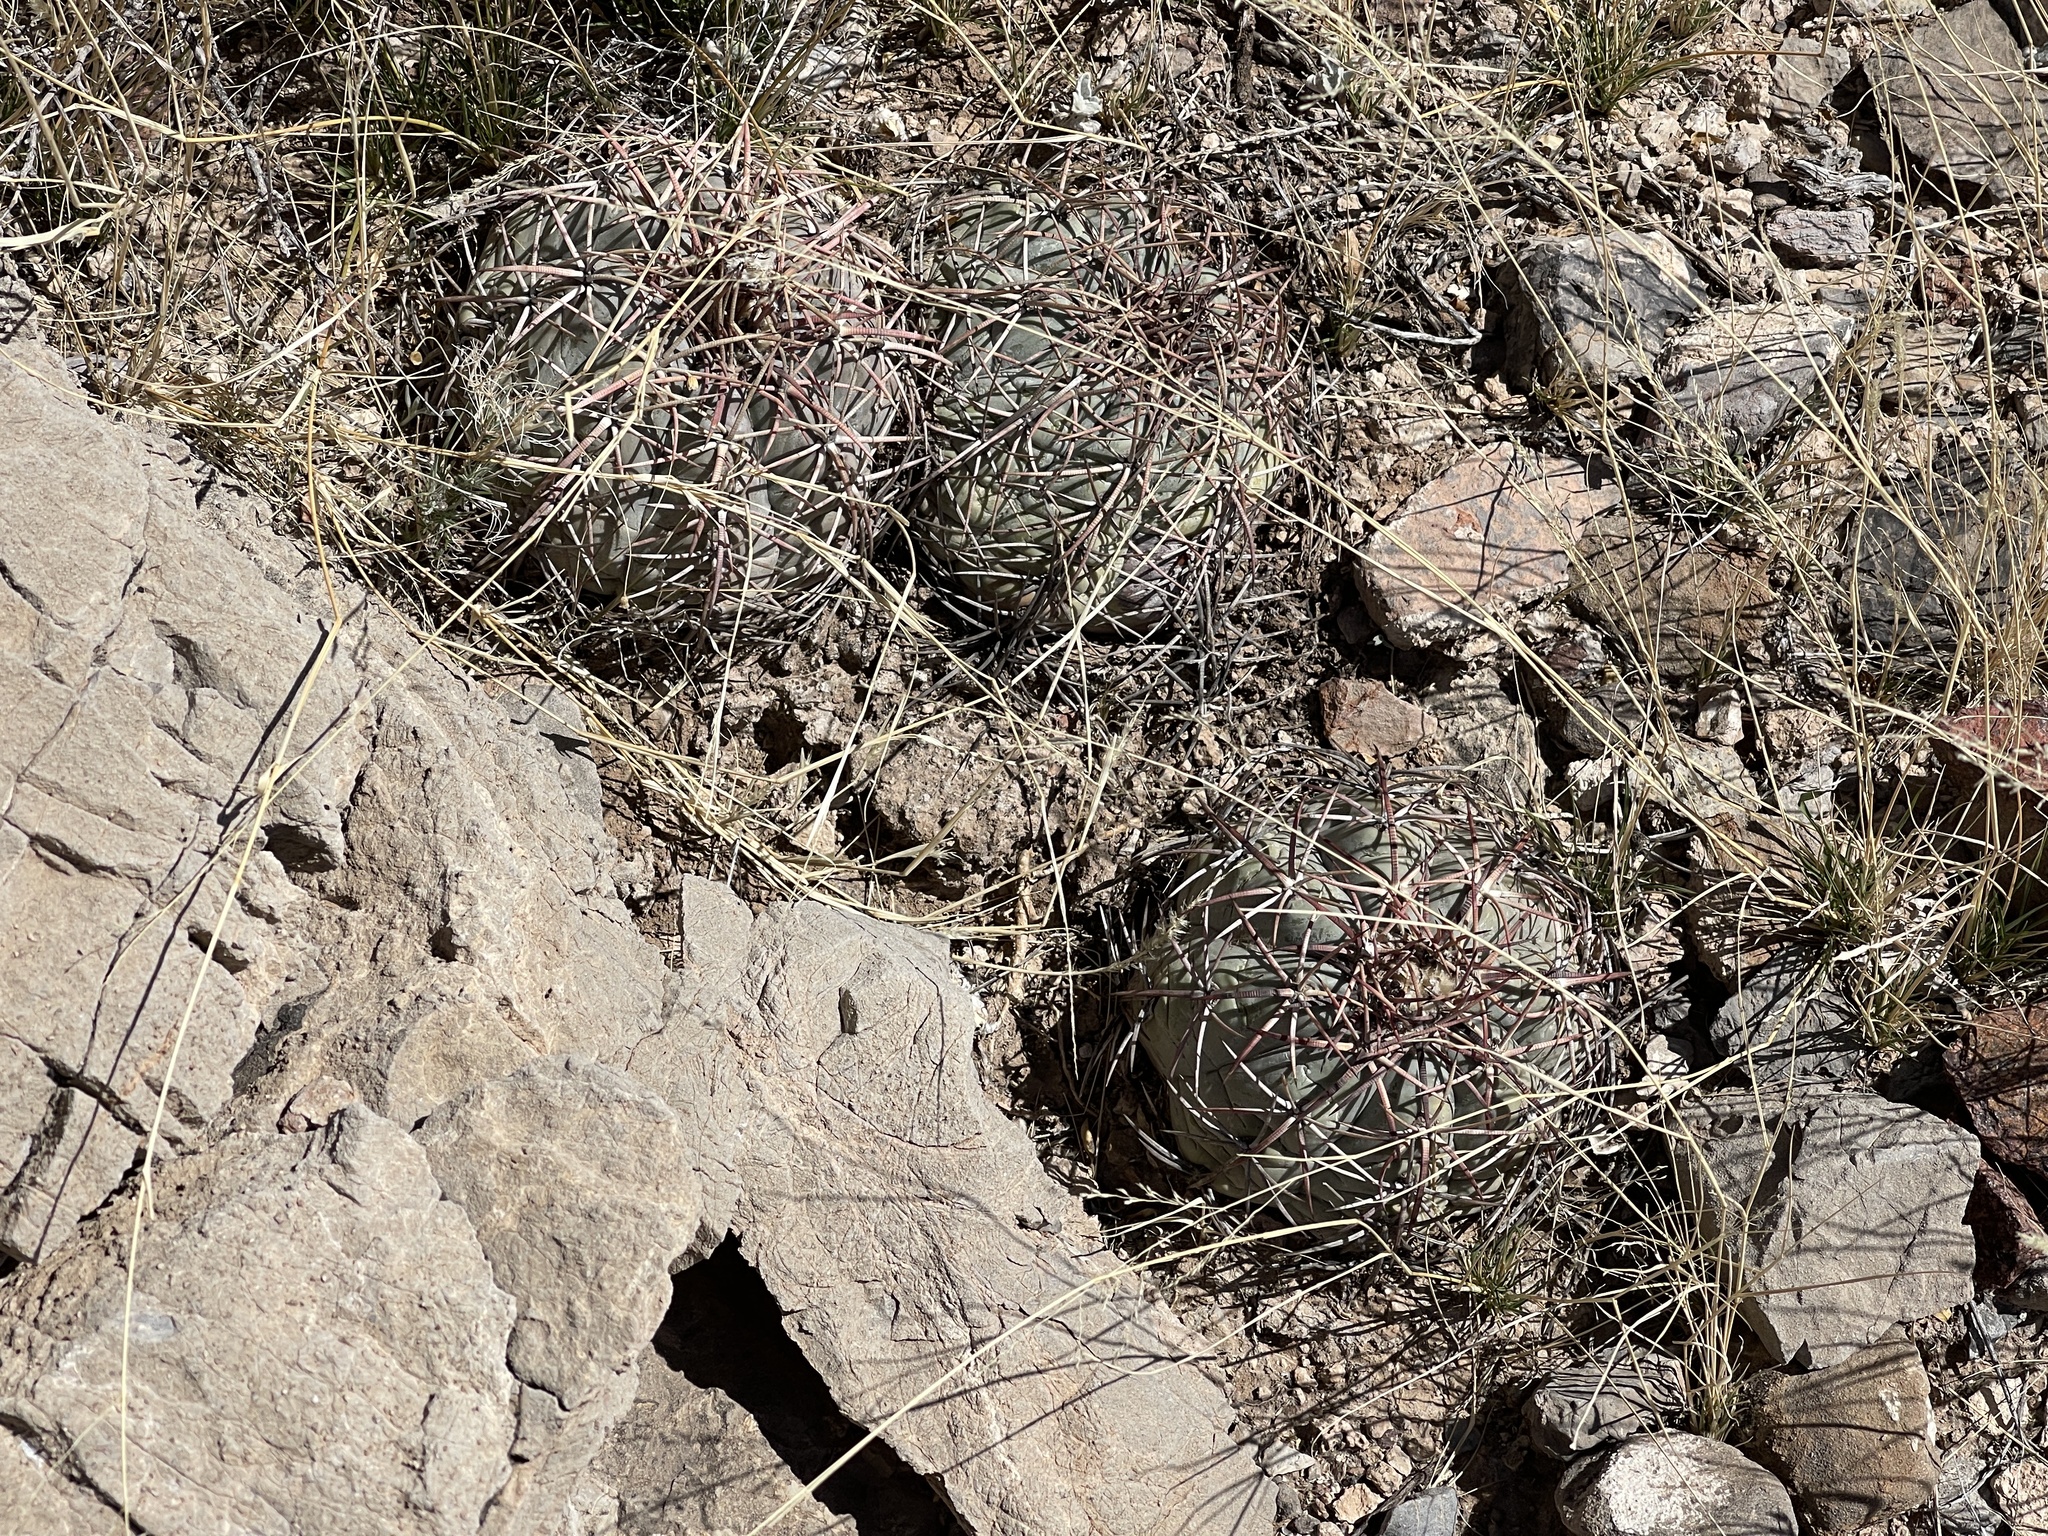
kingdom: Plantae
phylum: Tracheophyta
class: Magnoliopsida
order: Caryophyllales
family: Cactaceae
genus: Echinocactus
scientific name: Echinocactus horizonthalonius
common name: Devilshead
